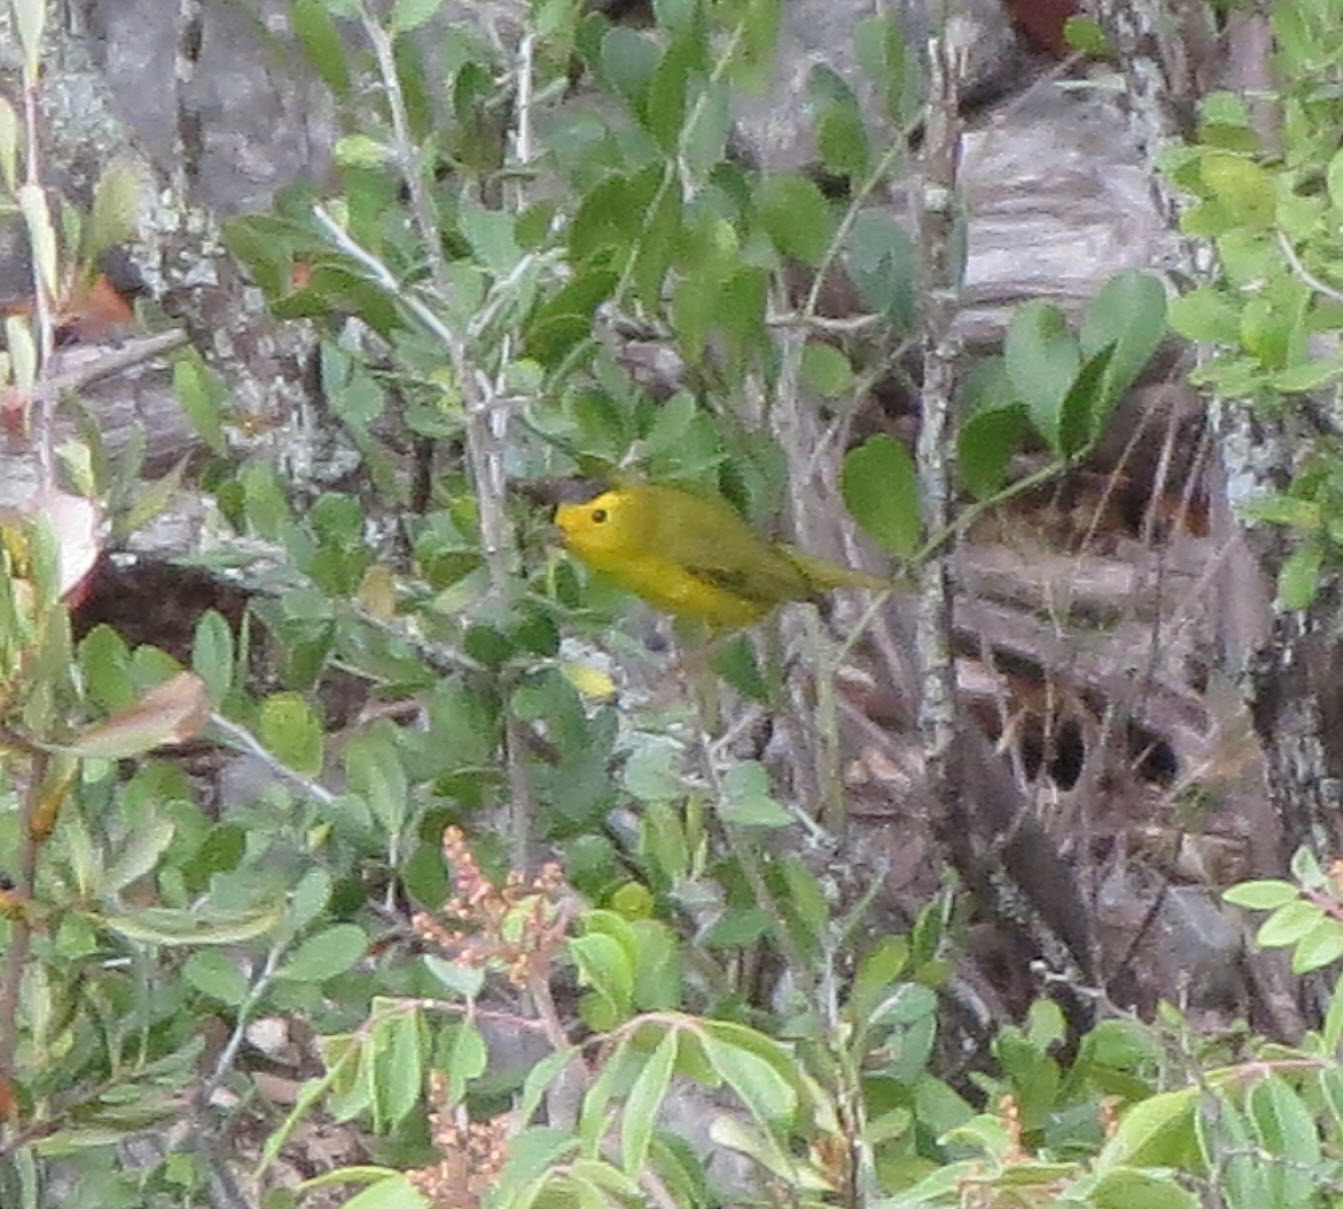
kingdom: Animalia
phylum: Chordata
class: Aves
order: Passeriformes
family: Parulidae
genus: Cardellina
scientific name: Cardellina pusilla
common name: Wilson's warbler
